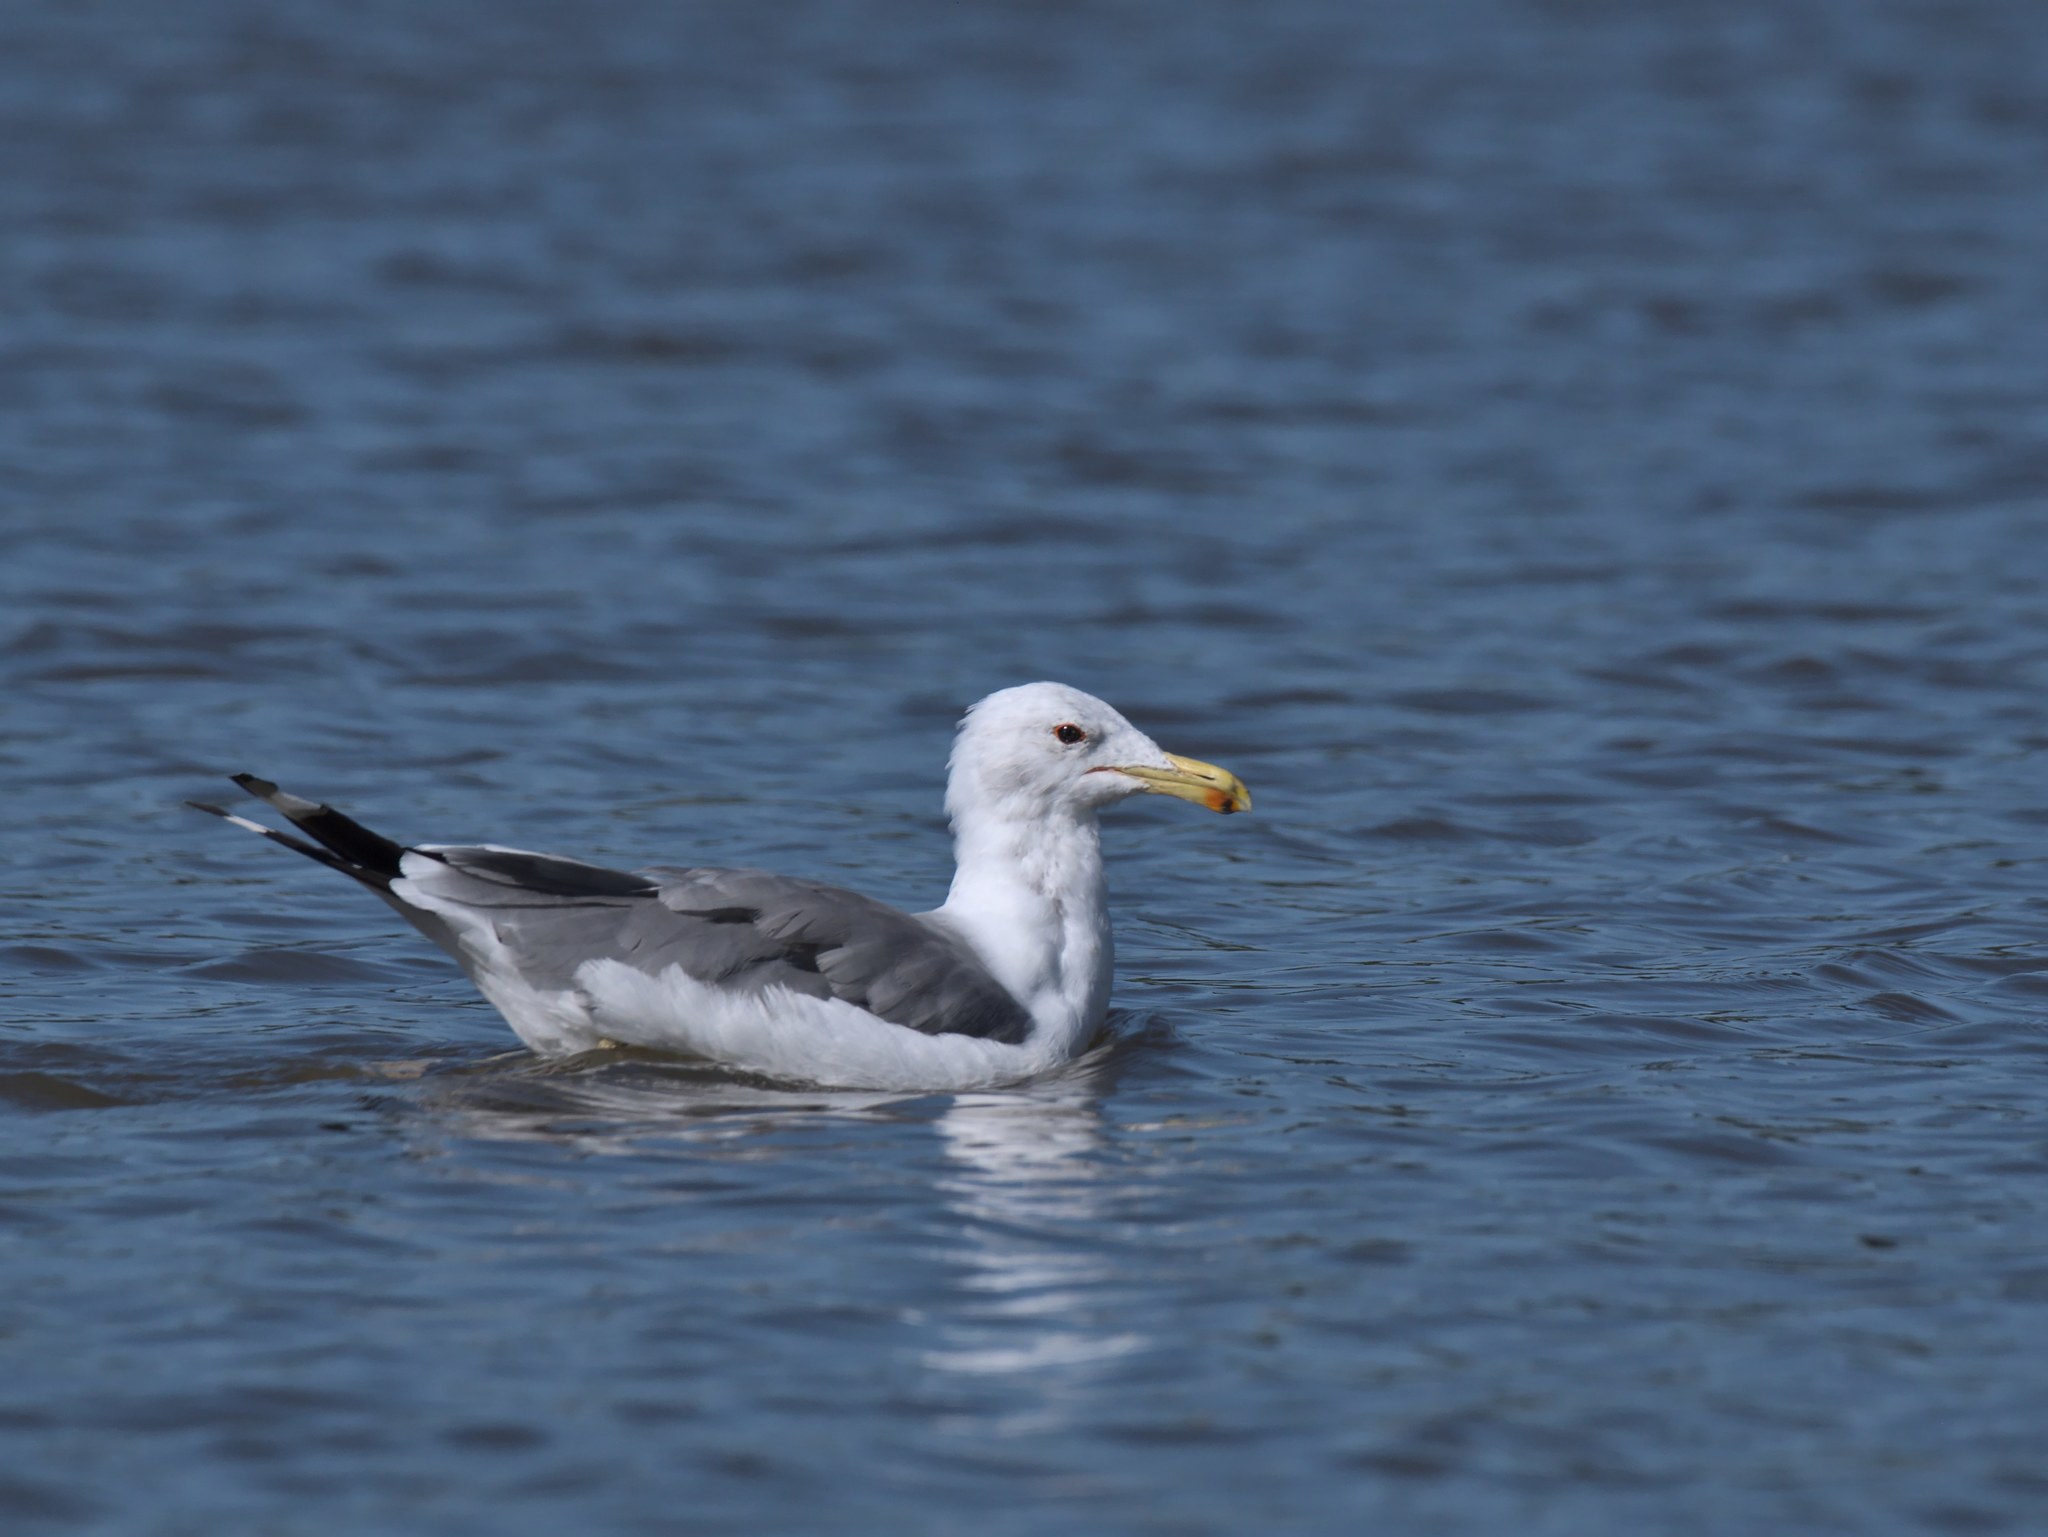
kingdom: Animalia
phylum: Chordata
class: Aves
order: Charadriiformes
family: Laridae
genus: Larus
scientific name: Larus californicus
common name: California gull
